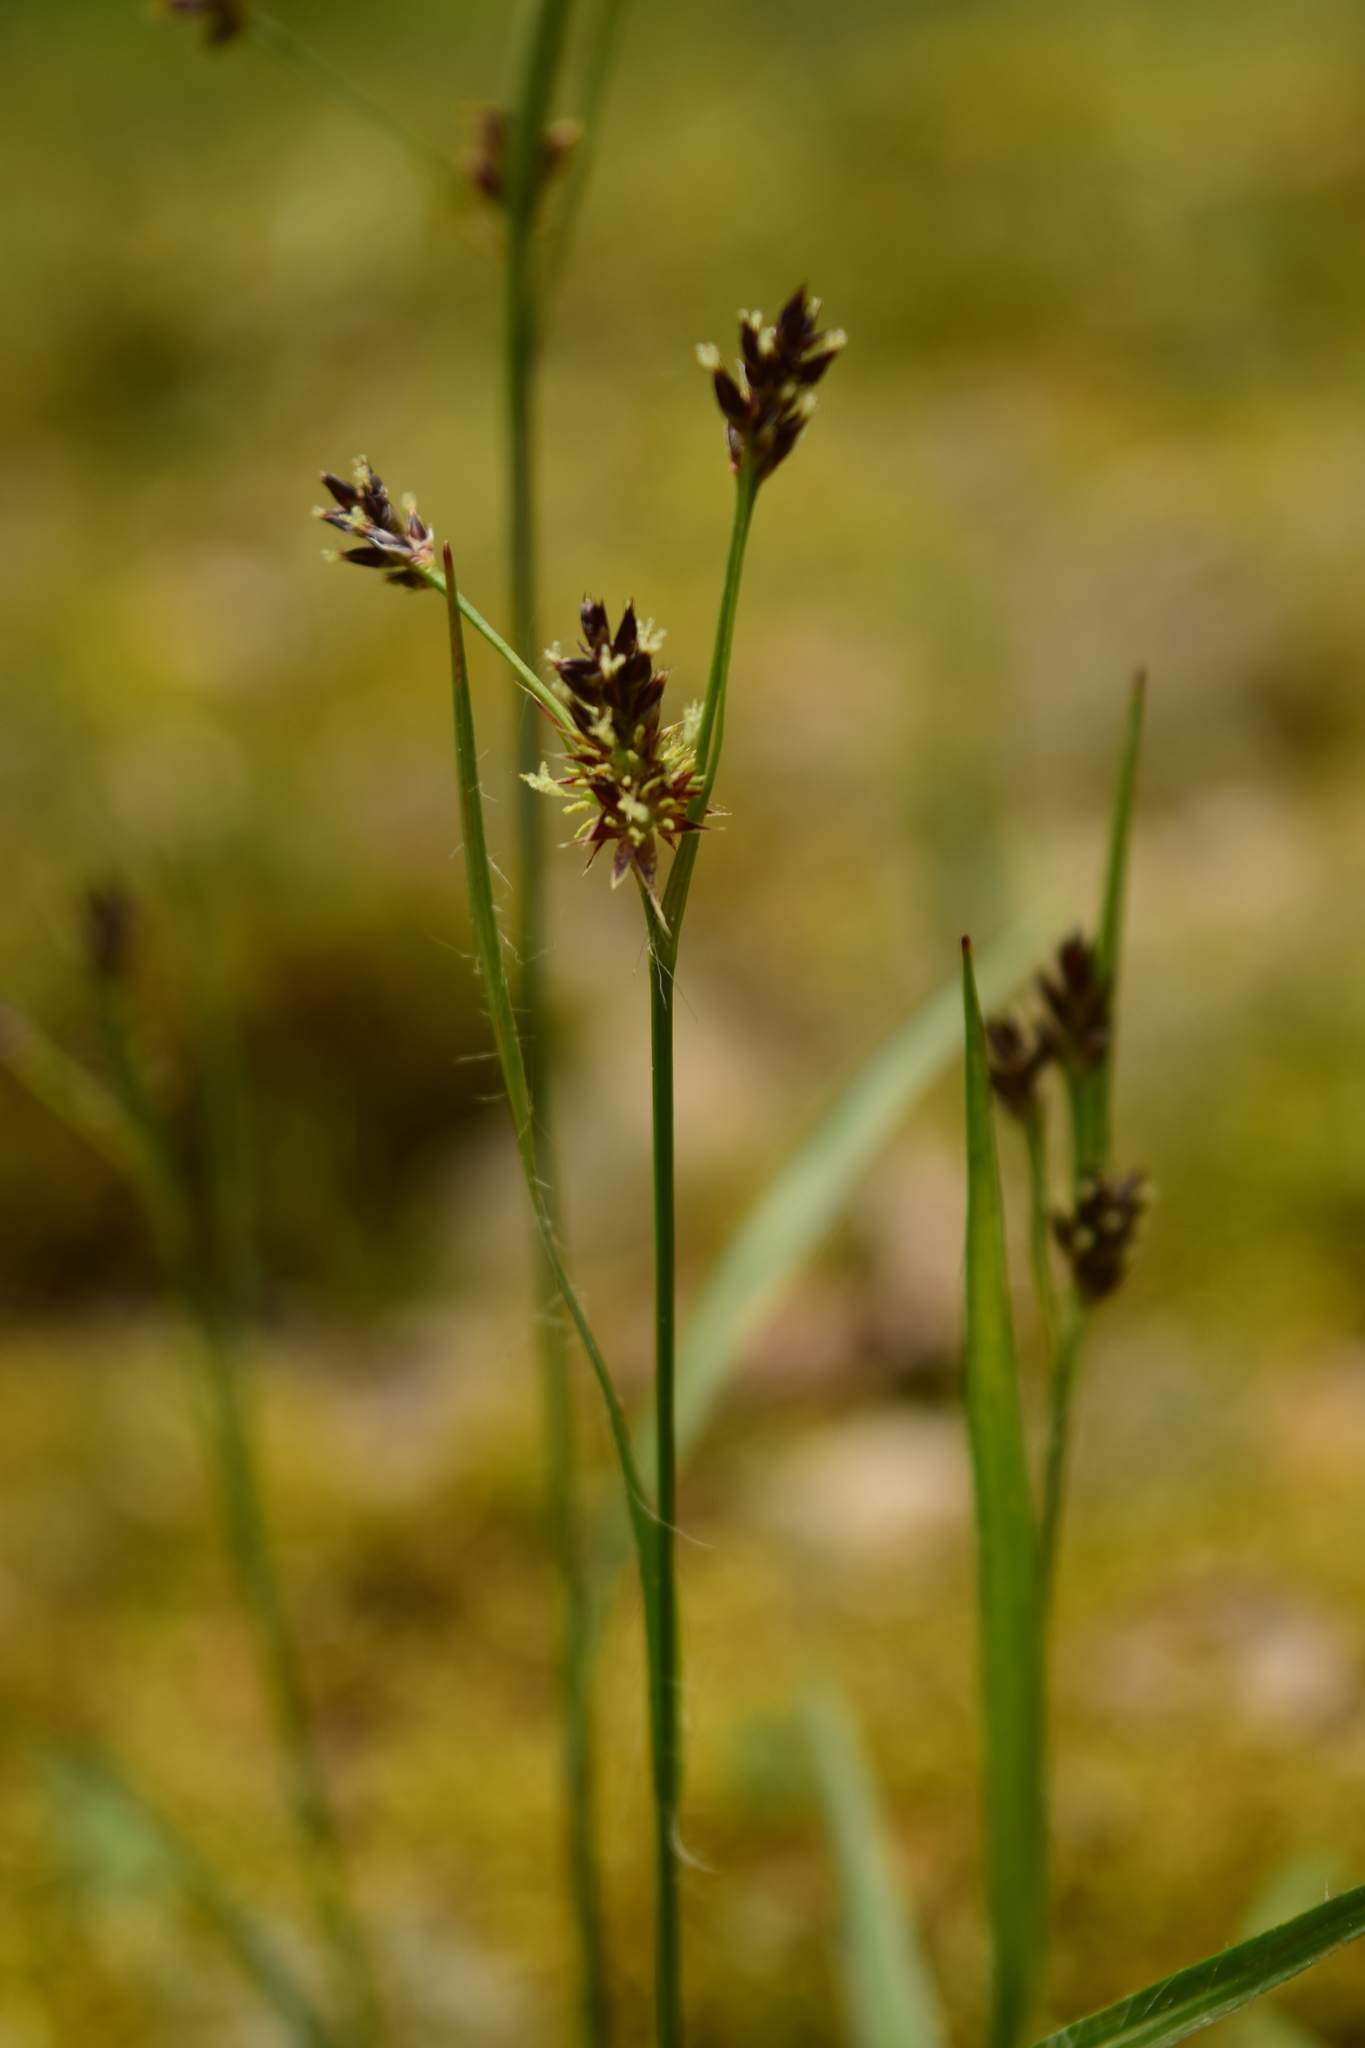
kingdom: Plantae
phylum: Tracheophyta
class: Liliopsida
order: Poales
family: Juncaceae
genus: Luzula
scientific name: Luzula multiflora
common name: Heath wood-rush
